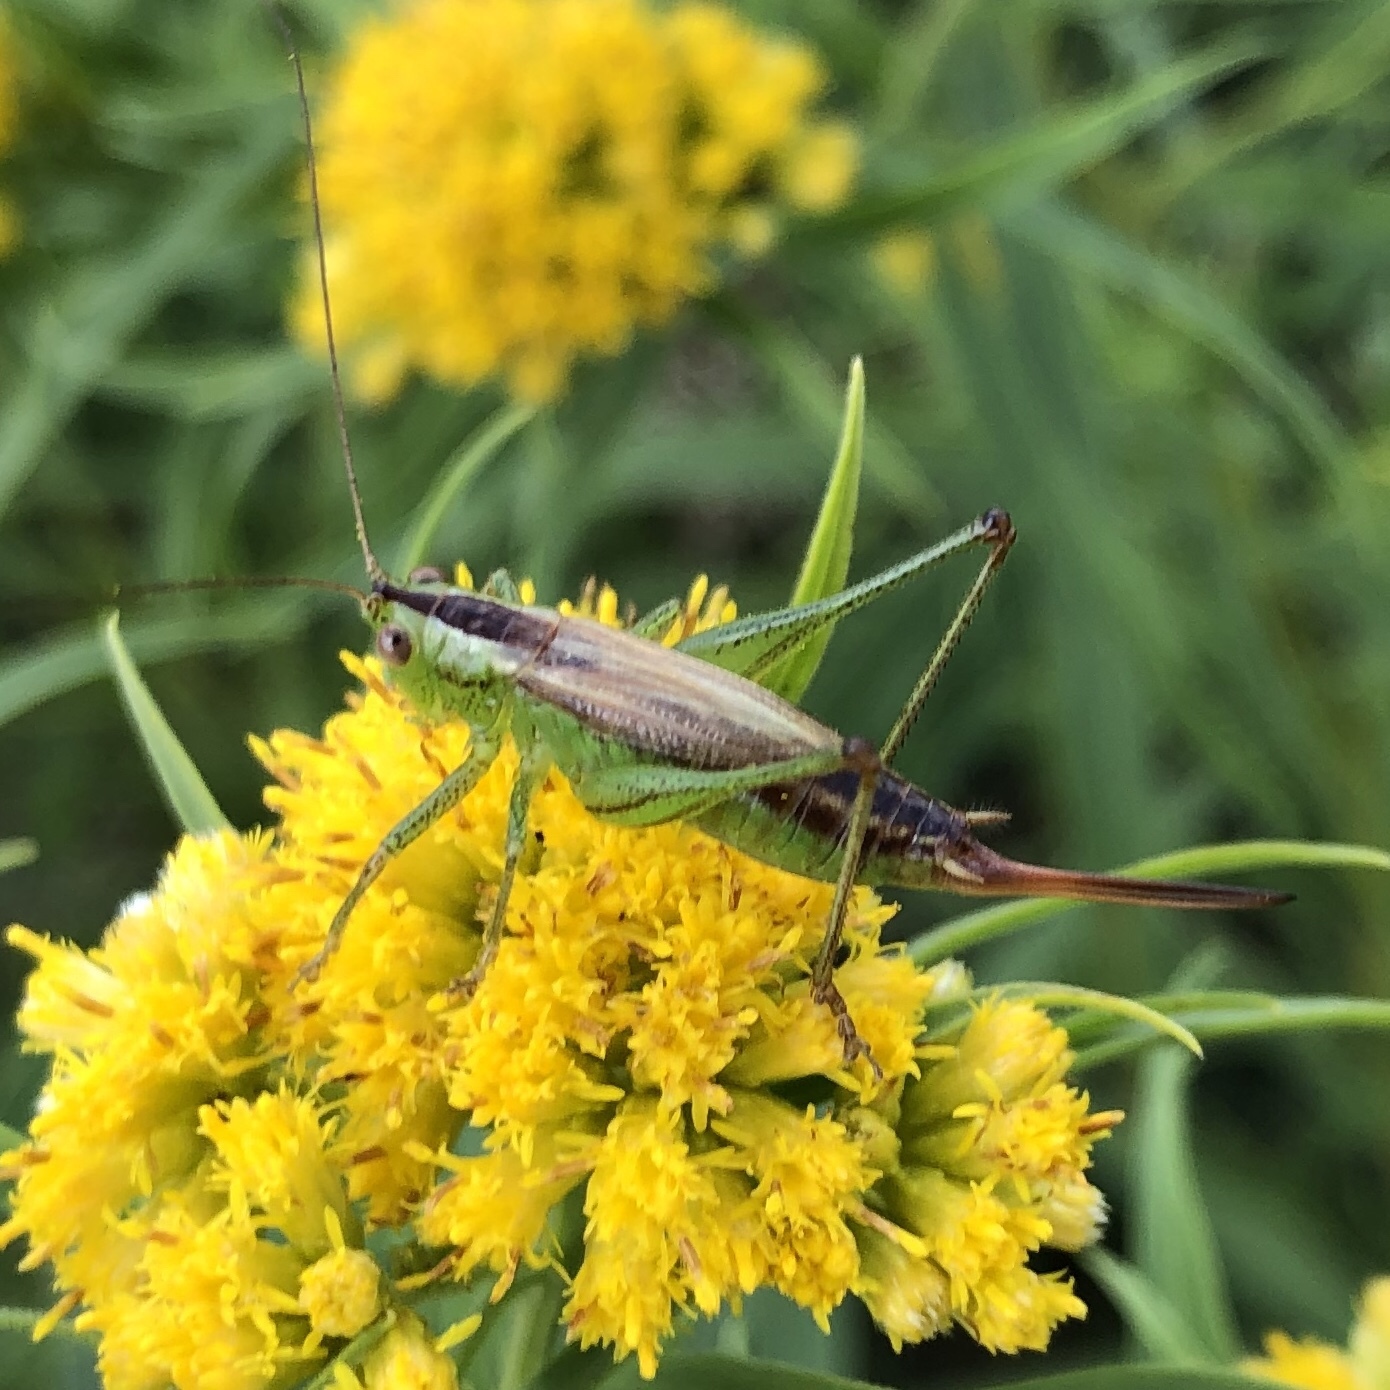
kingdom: Animalia
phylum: Arthropoda
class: Insecta
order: Orthoptera
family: Tettigoniidae
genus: Conocephalus
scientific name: Conocephalus brevipennis
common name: Short-winged meadow katydid
